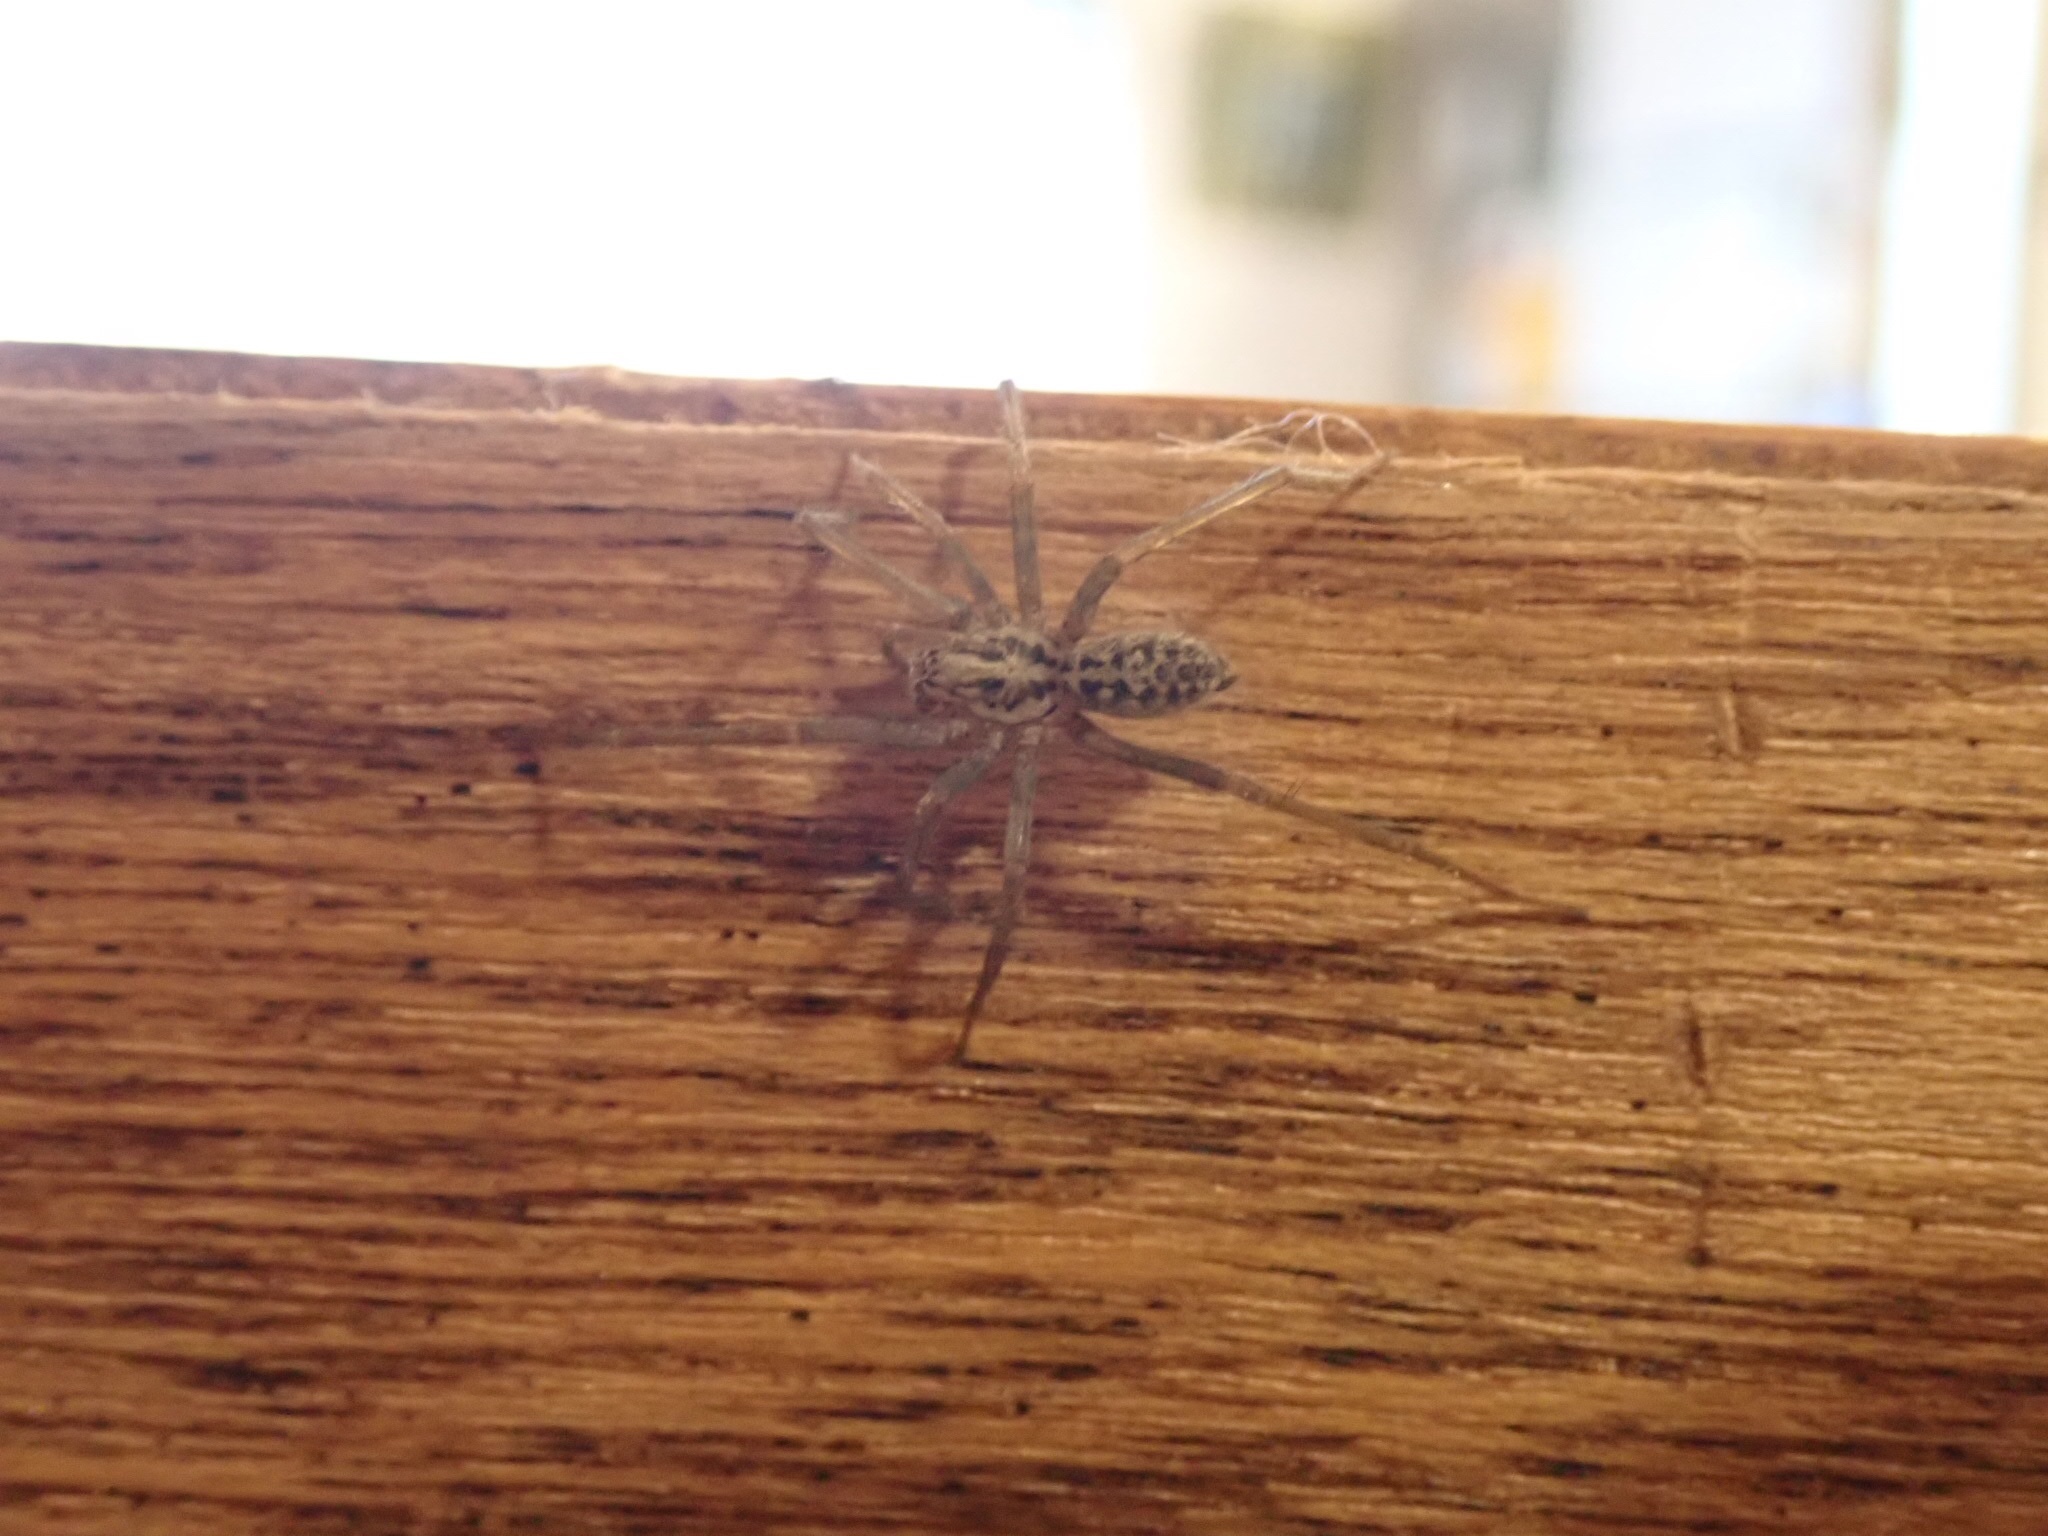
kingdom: Animalia
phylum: Arthropoda
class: Arachnida
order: Araneae
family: Agelenidae
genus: Eratigena
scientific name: Eratigena duellica
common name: Giant house spider
